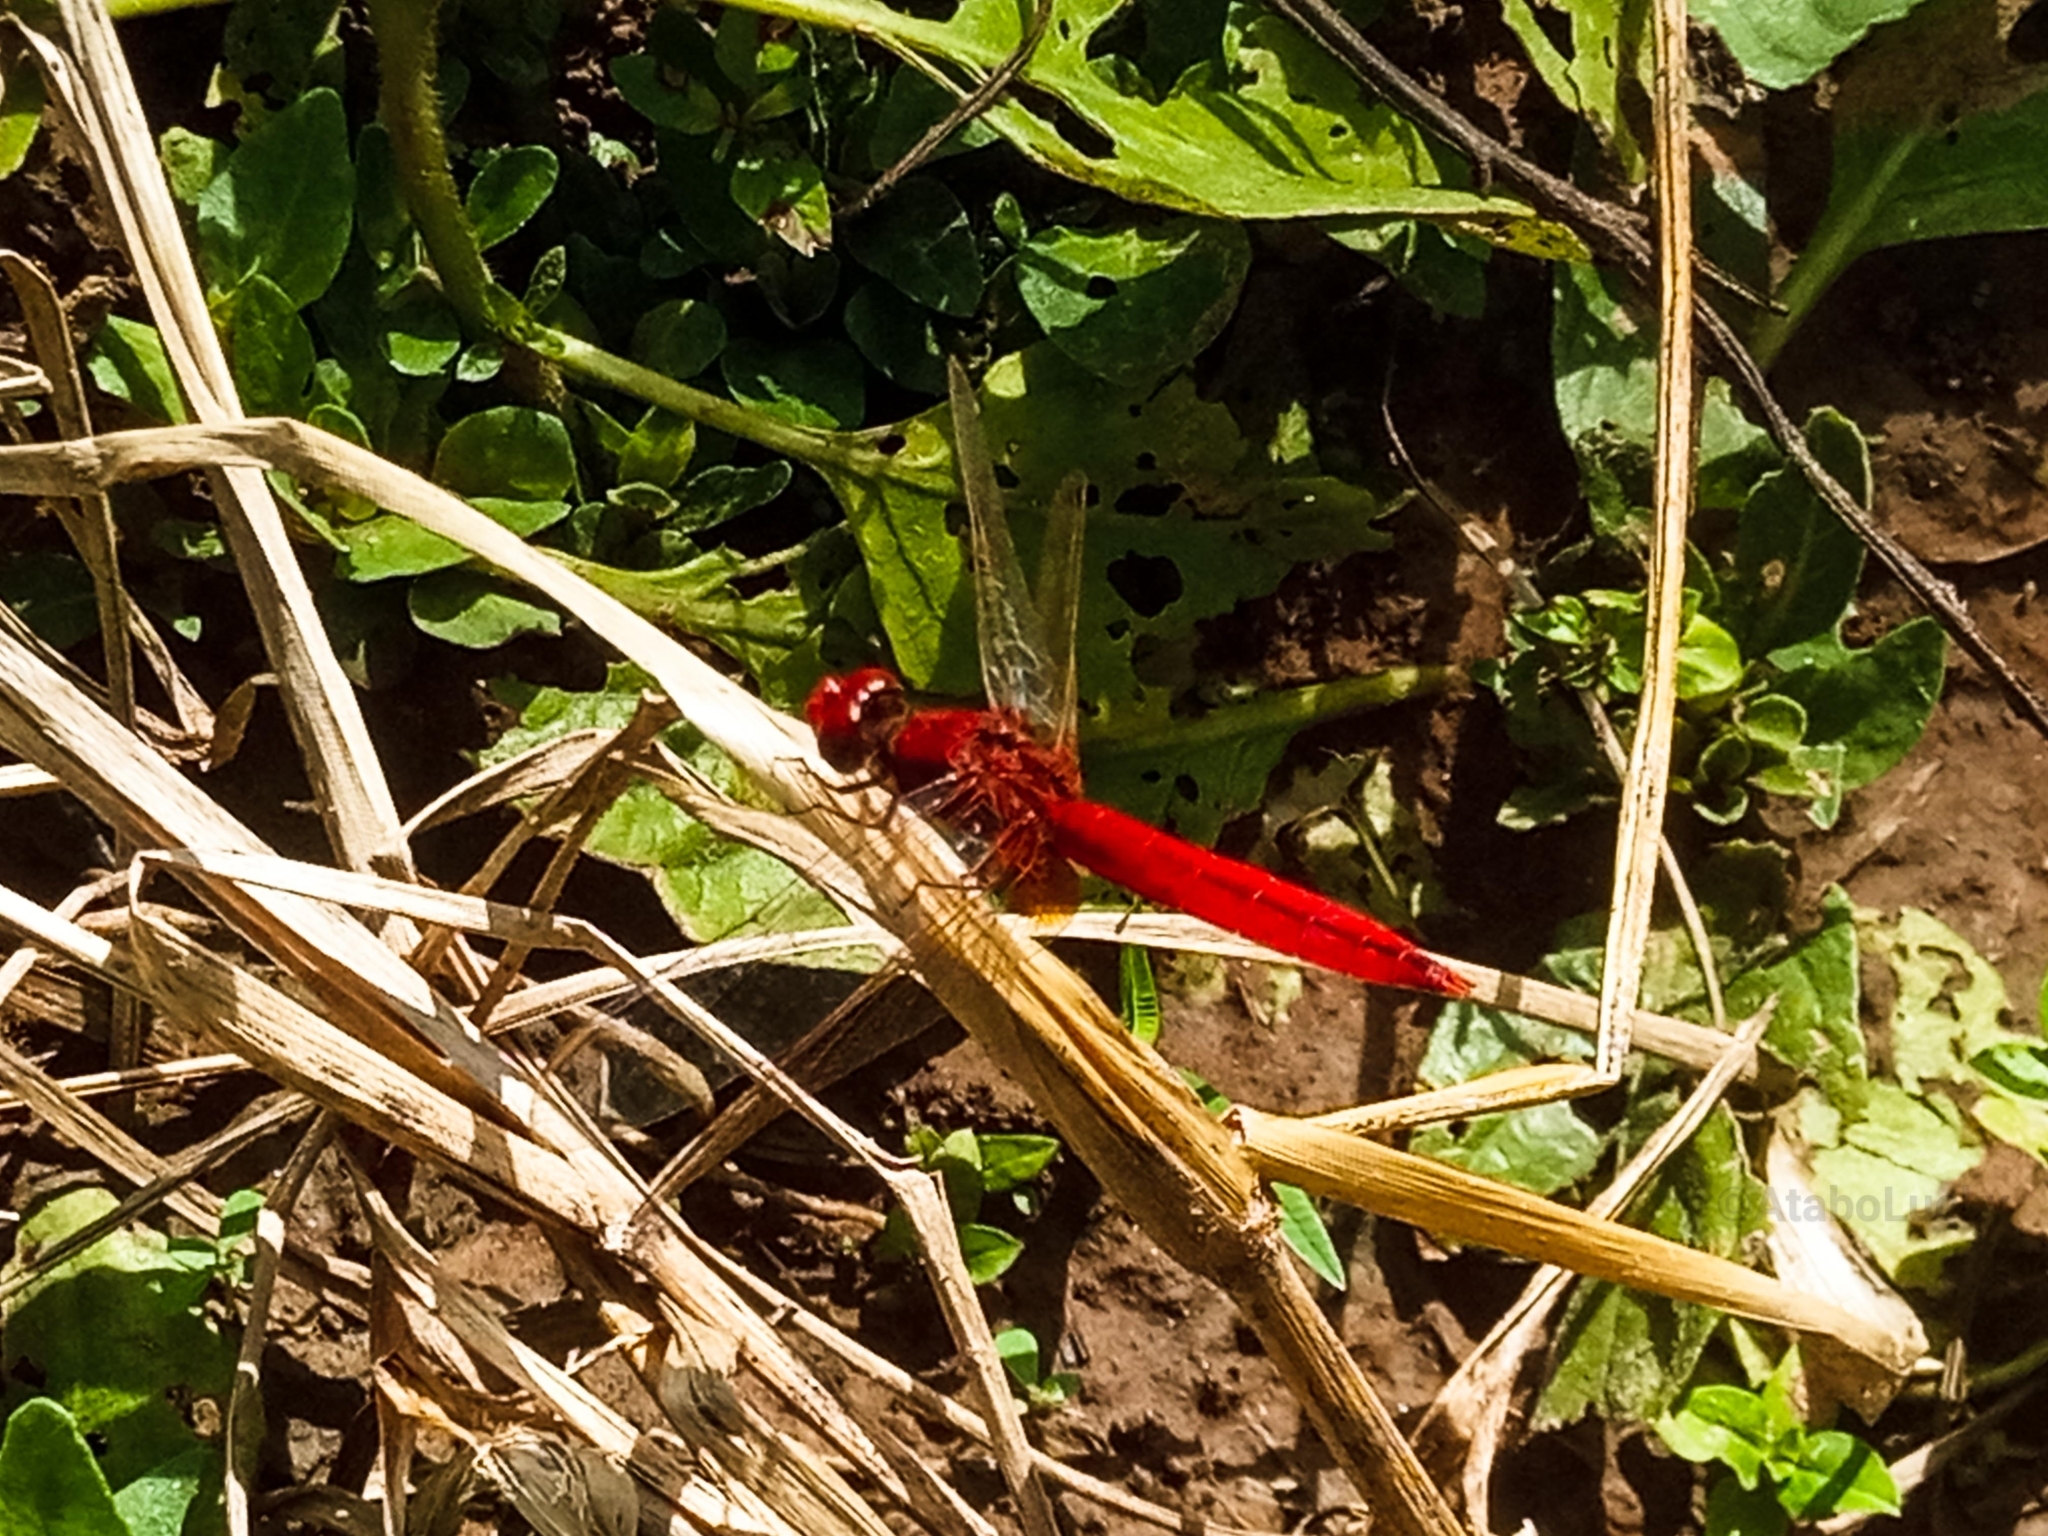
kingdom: Animalia
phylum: Arthropoda
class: Insecta
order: Odonata
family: Libellulidae
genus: Crocothemis
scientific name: Crocothemis erythraea
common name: Scarlet dragonfly
